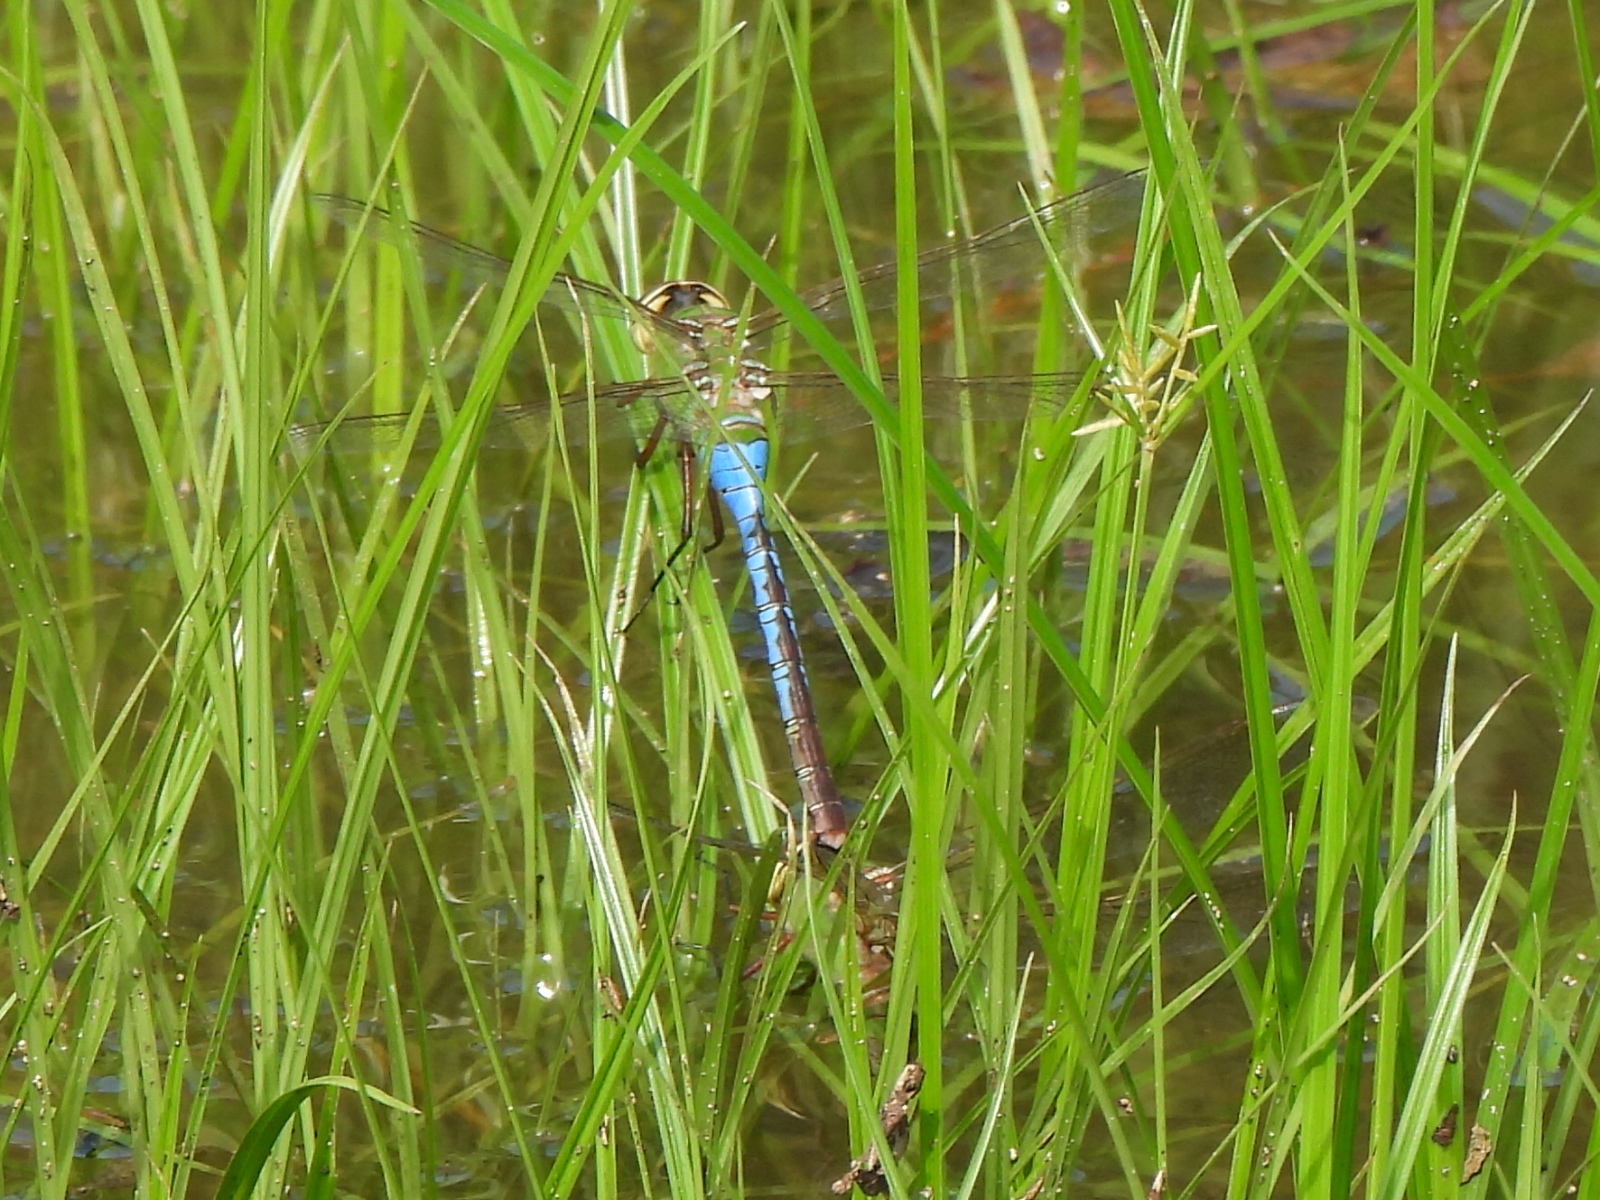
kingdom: Animalia
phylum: Arthropoda
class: Insecta
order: Odonata
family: Aeshnidae
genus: Anax
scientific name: Anax junius
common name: Common green darner
